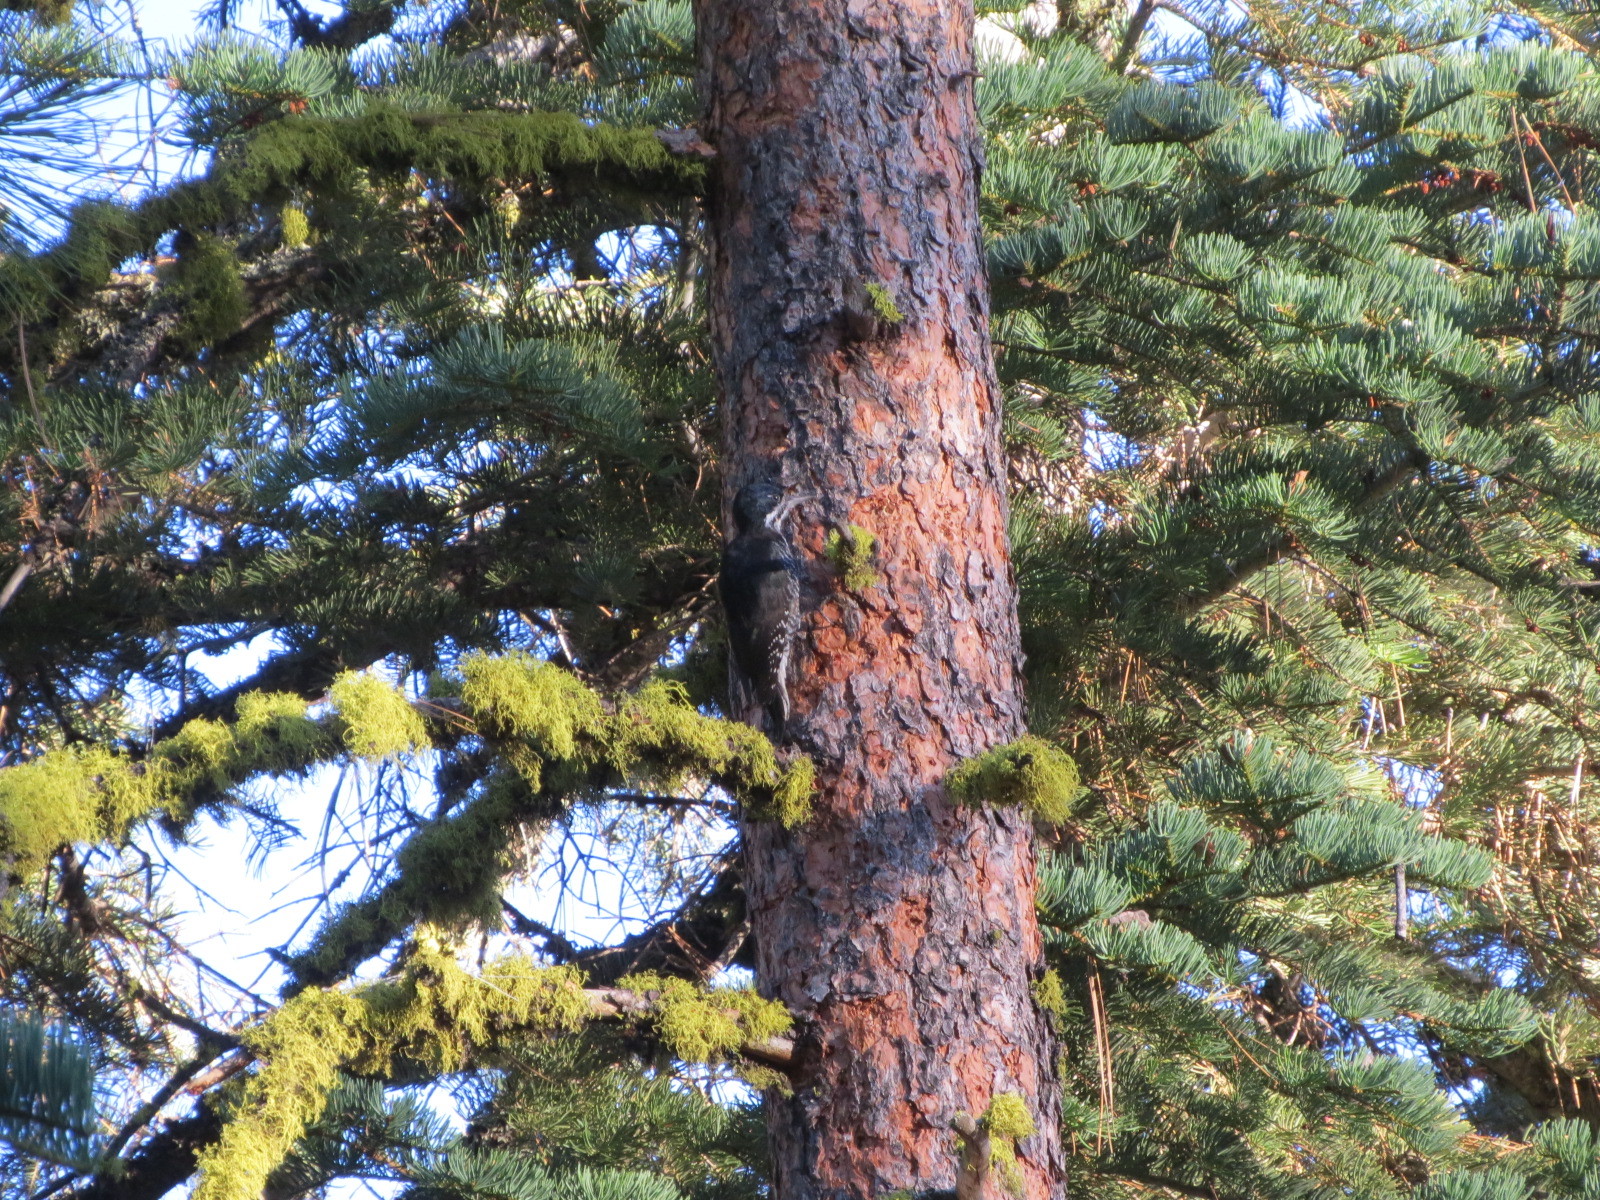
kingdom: Animalia
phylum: Chordata
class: Aves
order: Piciformes
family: Picidae
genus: Picoides
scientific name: Picoides arcticus
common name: Black-backed woodpecker
